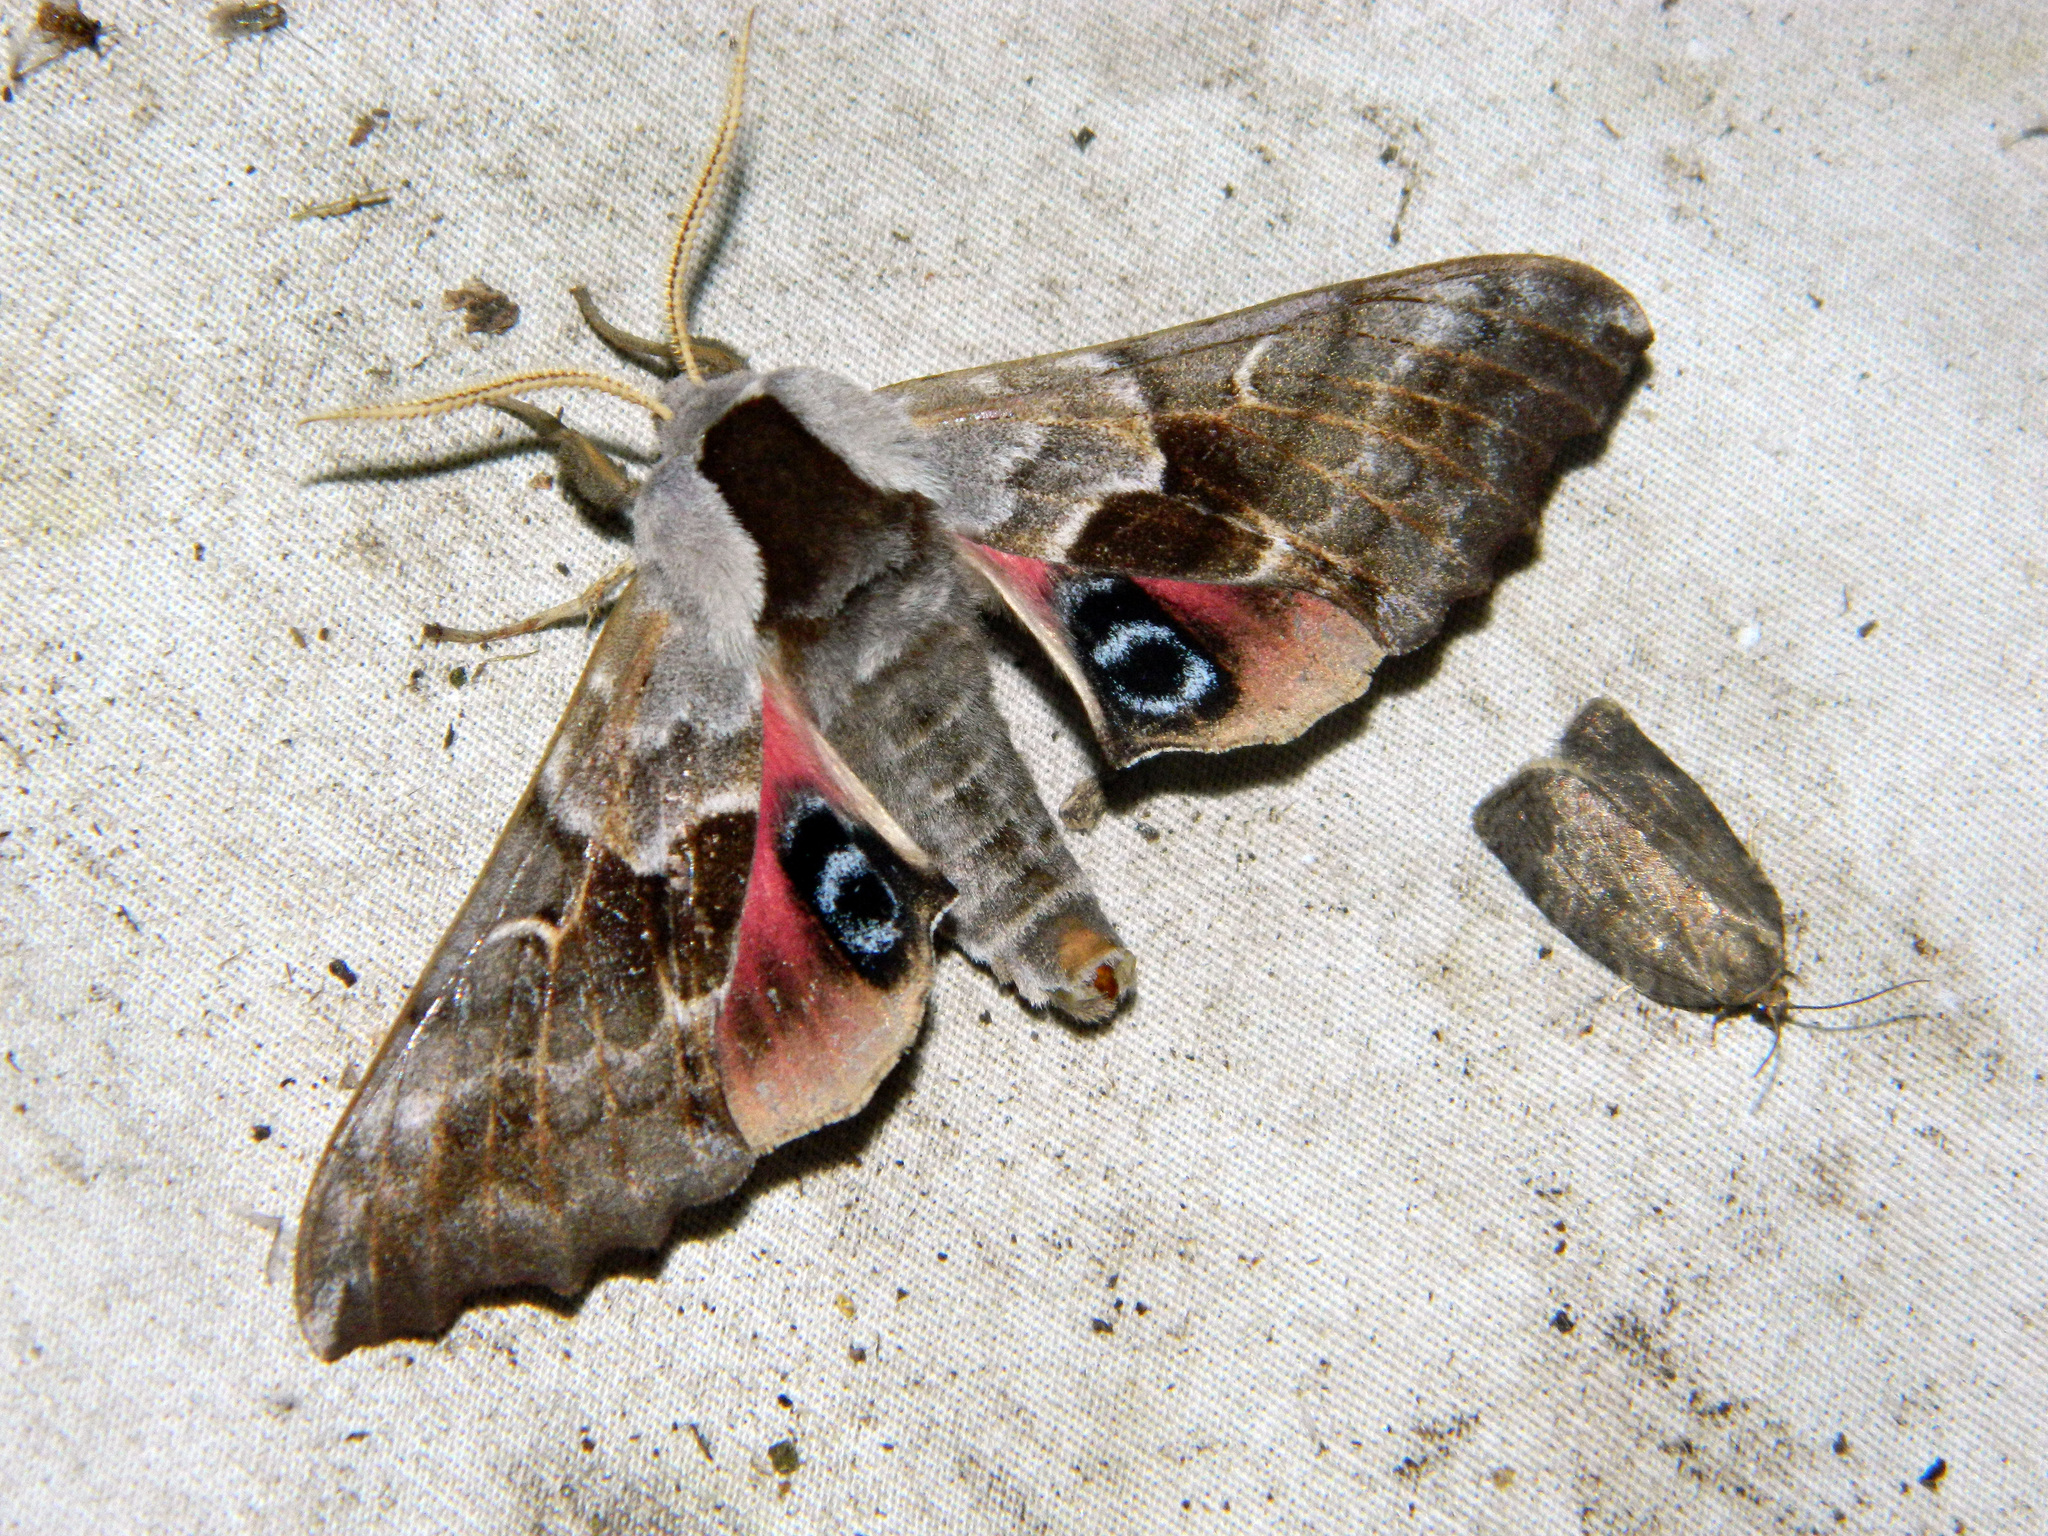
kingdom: Animalia
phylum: Arthropoda
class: Insecta
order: Lepidoptera
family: Sphingidae
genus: Smerinthus
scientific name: Smerinthus cerisyi
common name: Cerisy's sphinx moth
